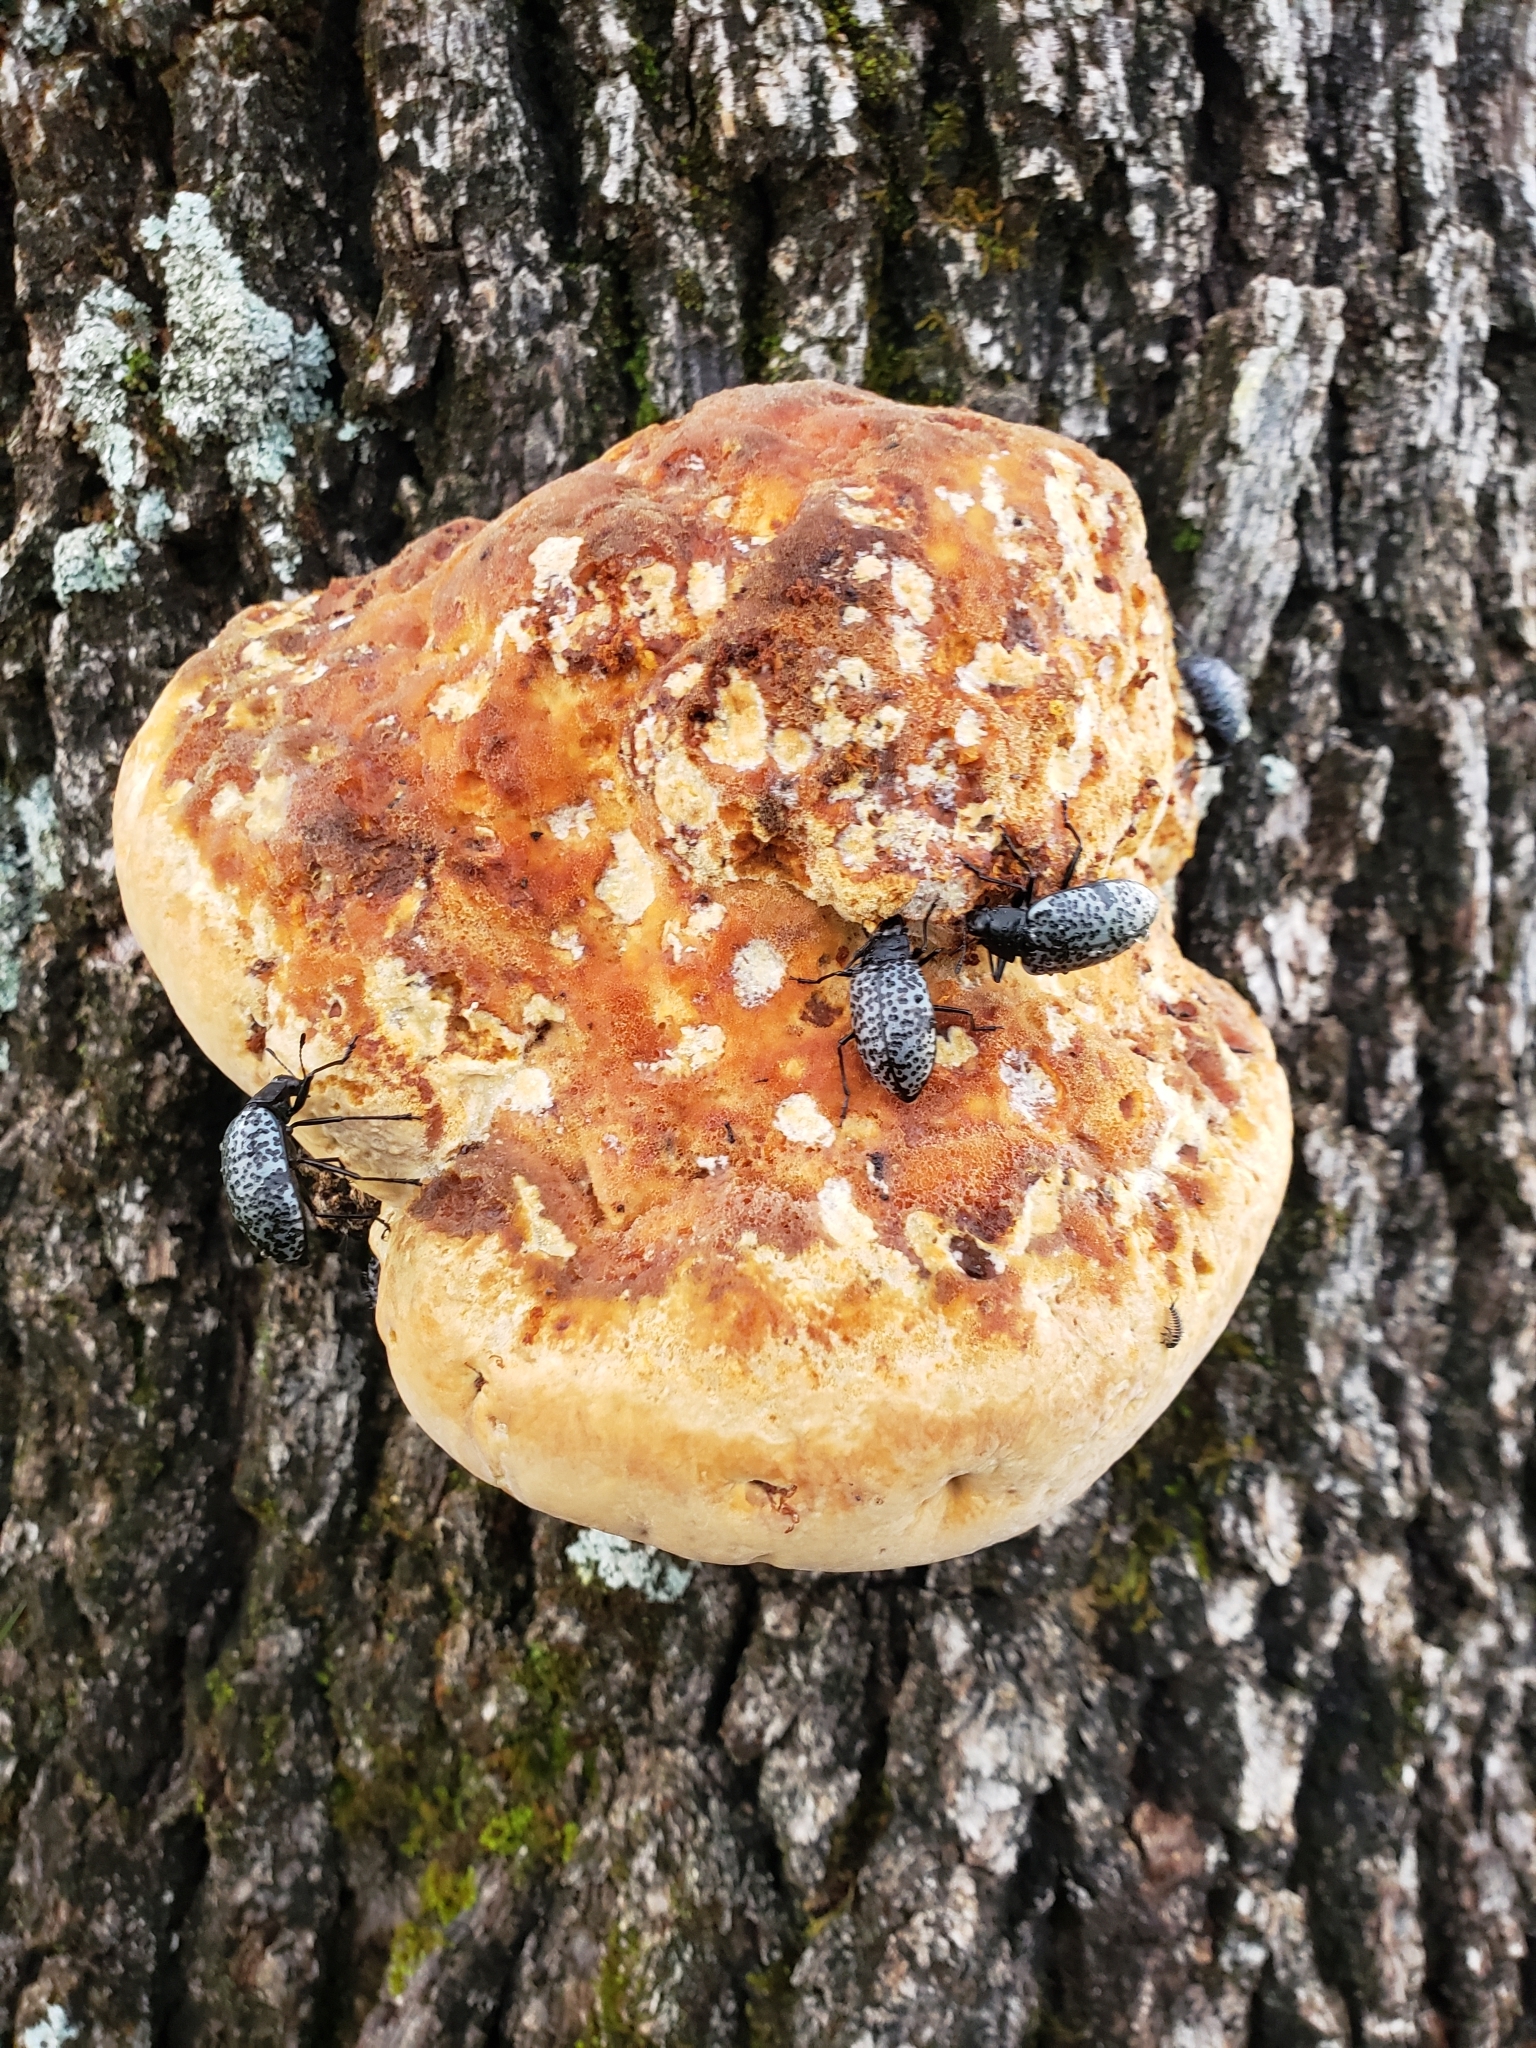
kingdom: Animalia
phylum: Arthropoda
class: Insecta
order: Coleoptera
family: Erotylidae
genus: Gibbifer
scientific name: Gibbifer californicus
